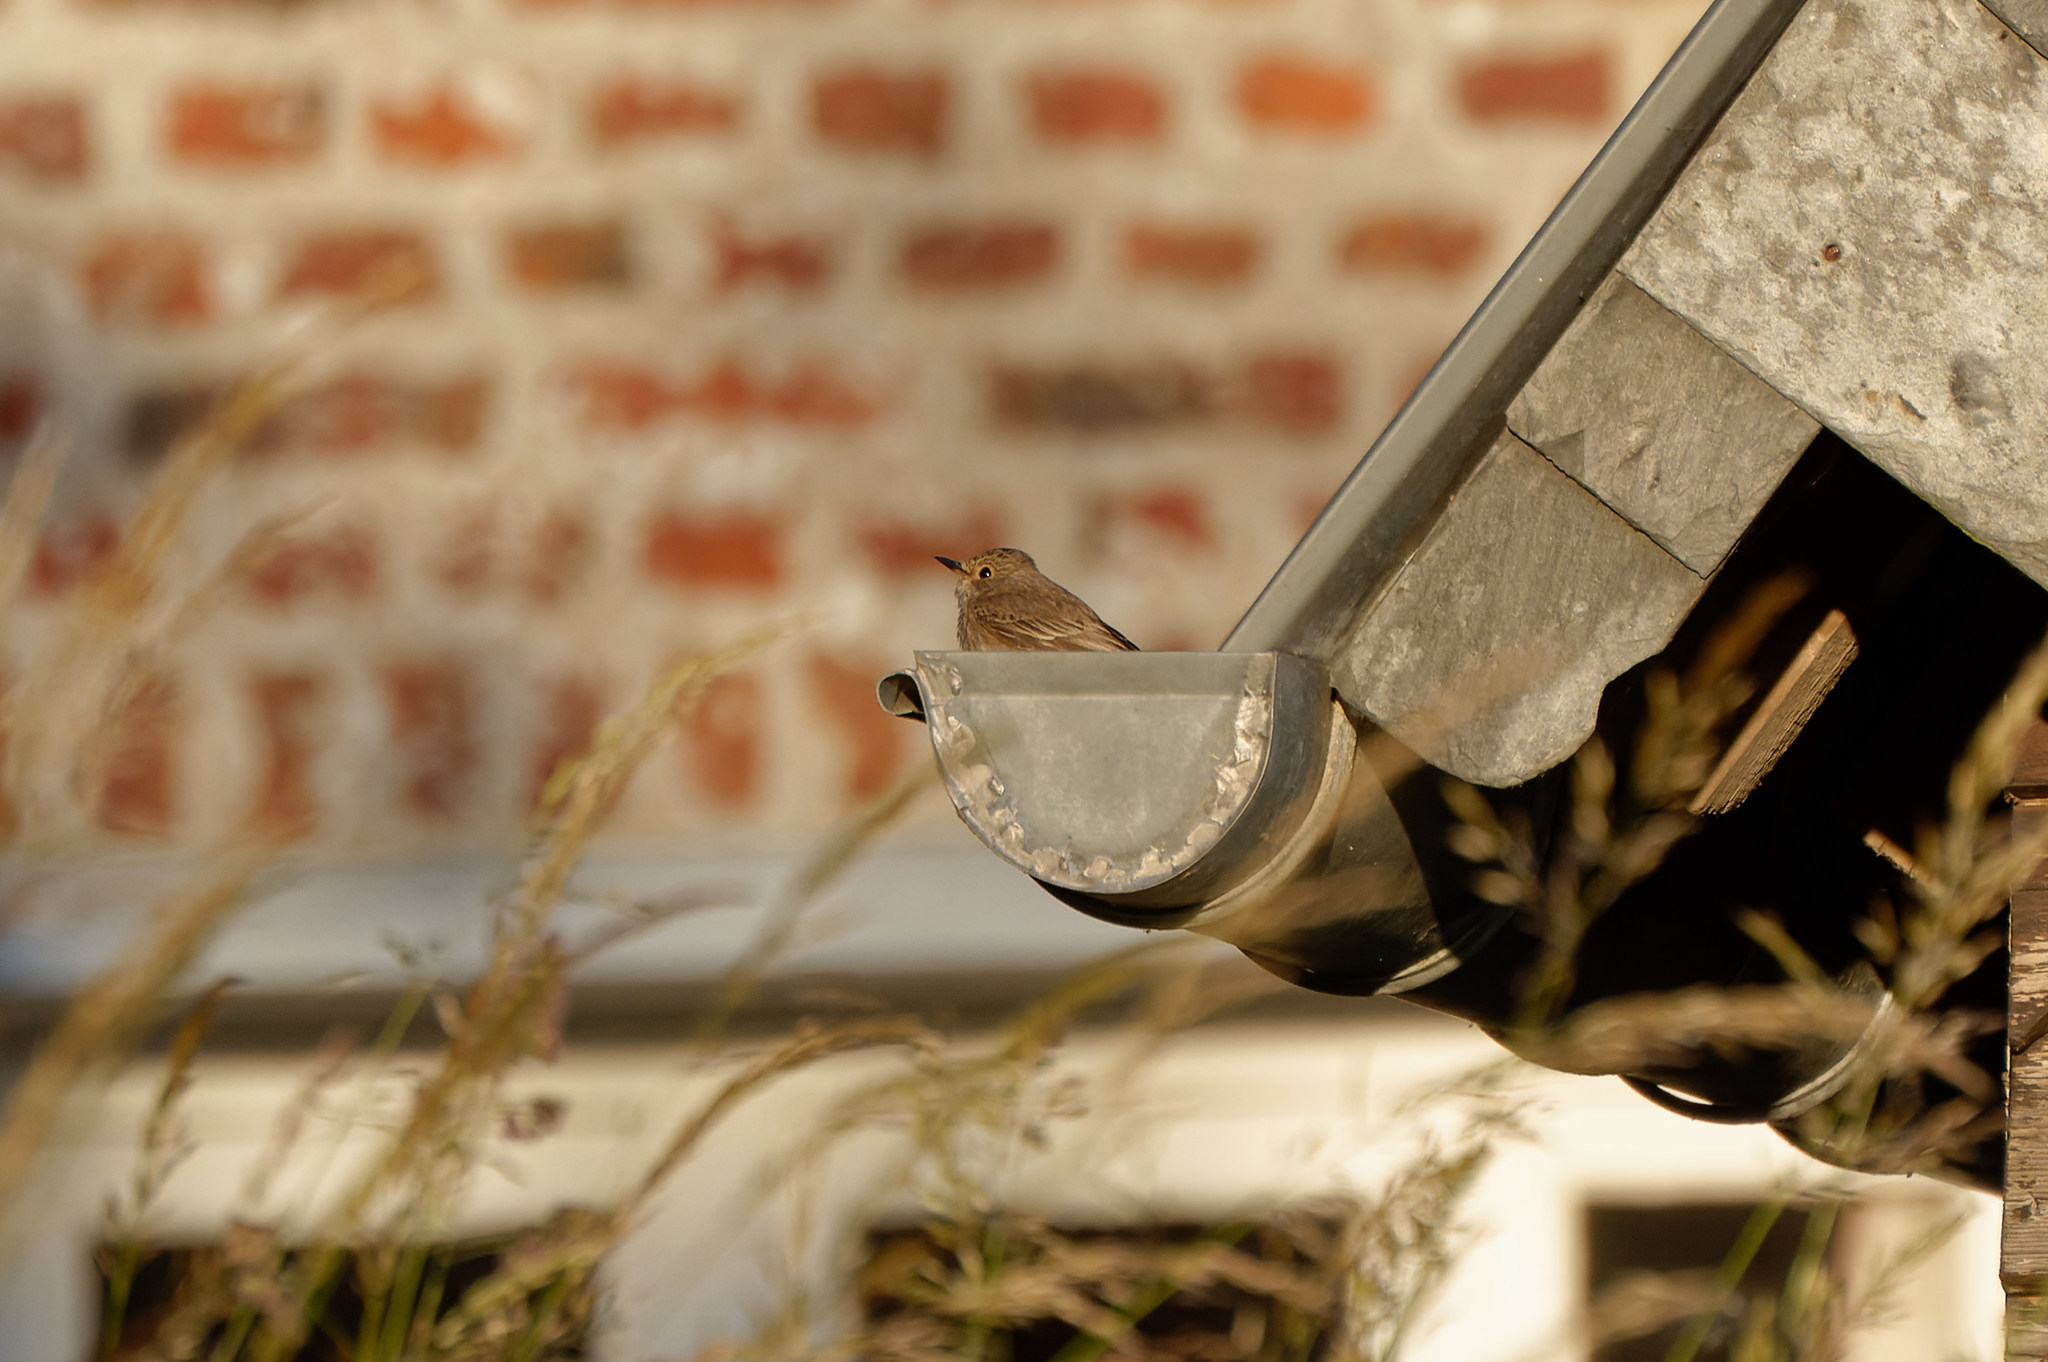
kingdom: Animalia
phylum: Chordata
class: Aves
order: Passeriformes
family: Muscicapidae
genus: Muscicapa
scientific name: Muscicapa striata
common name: Spotted flycatcher
